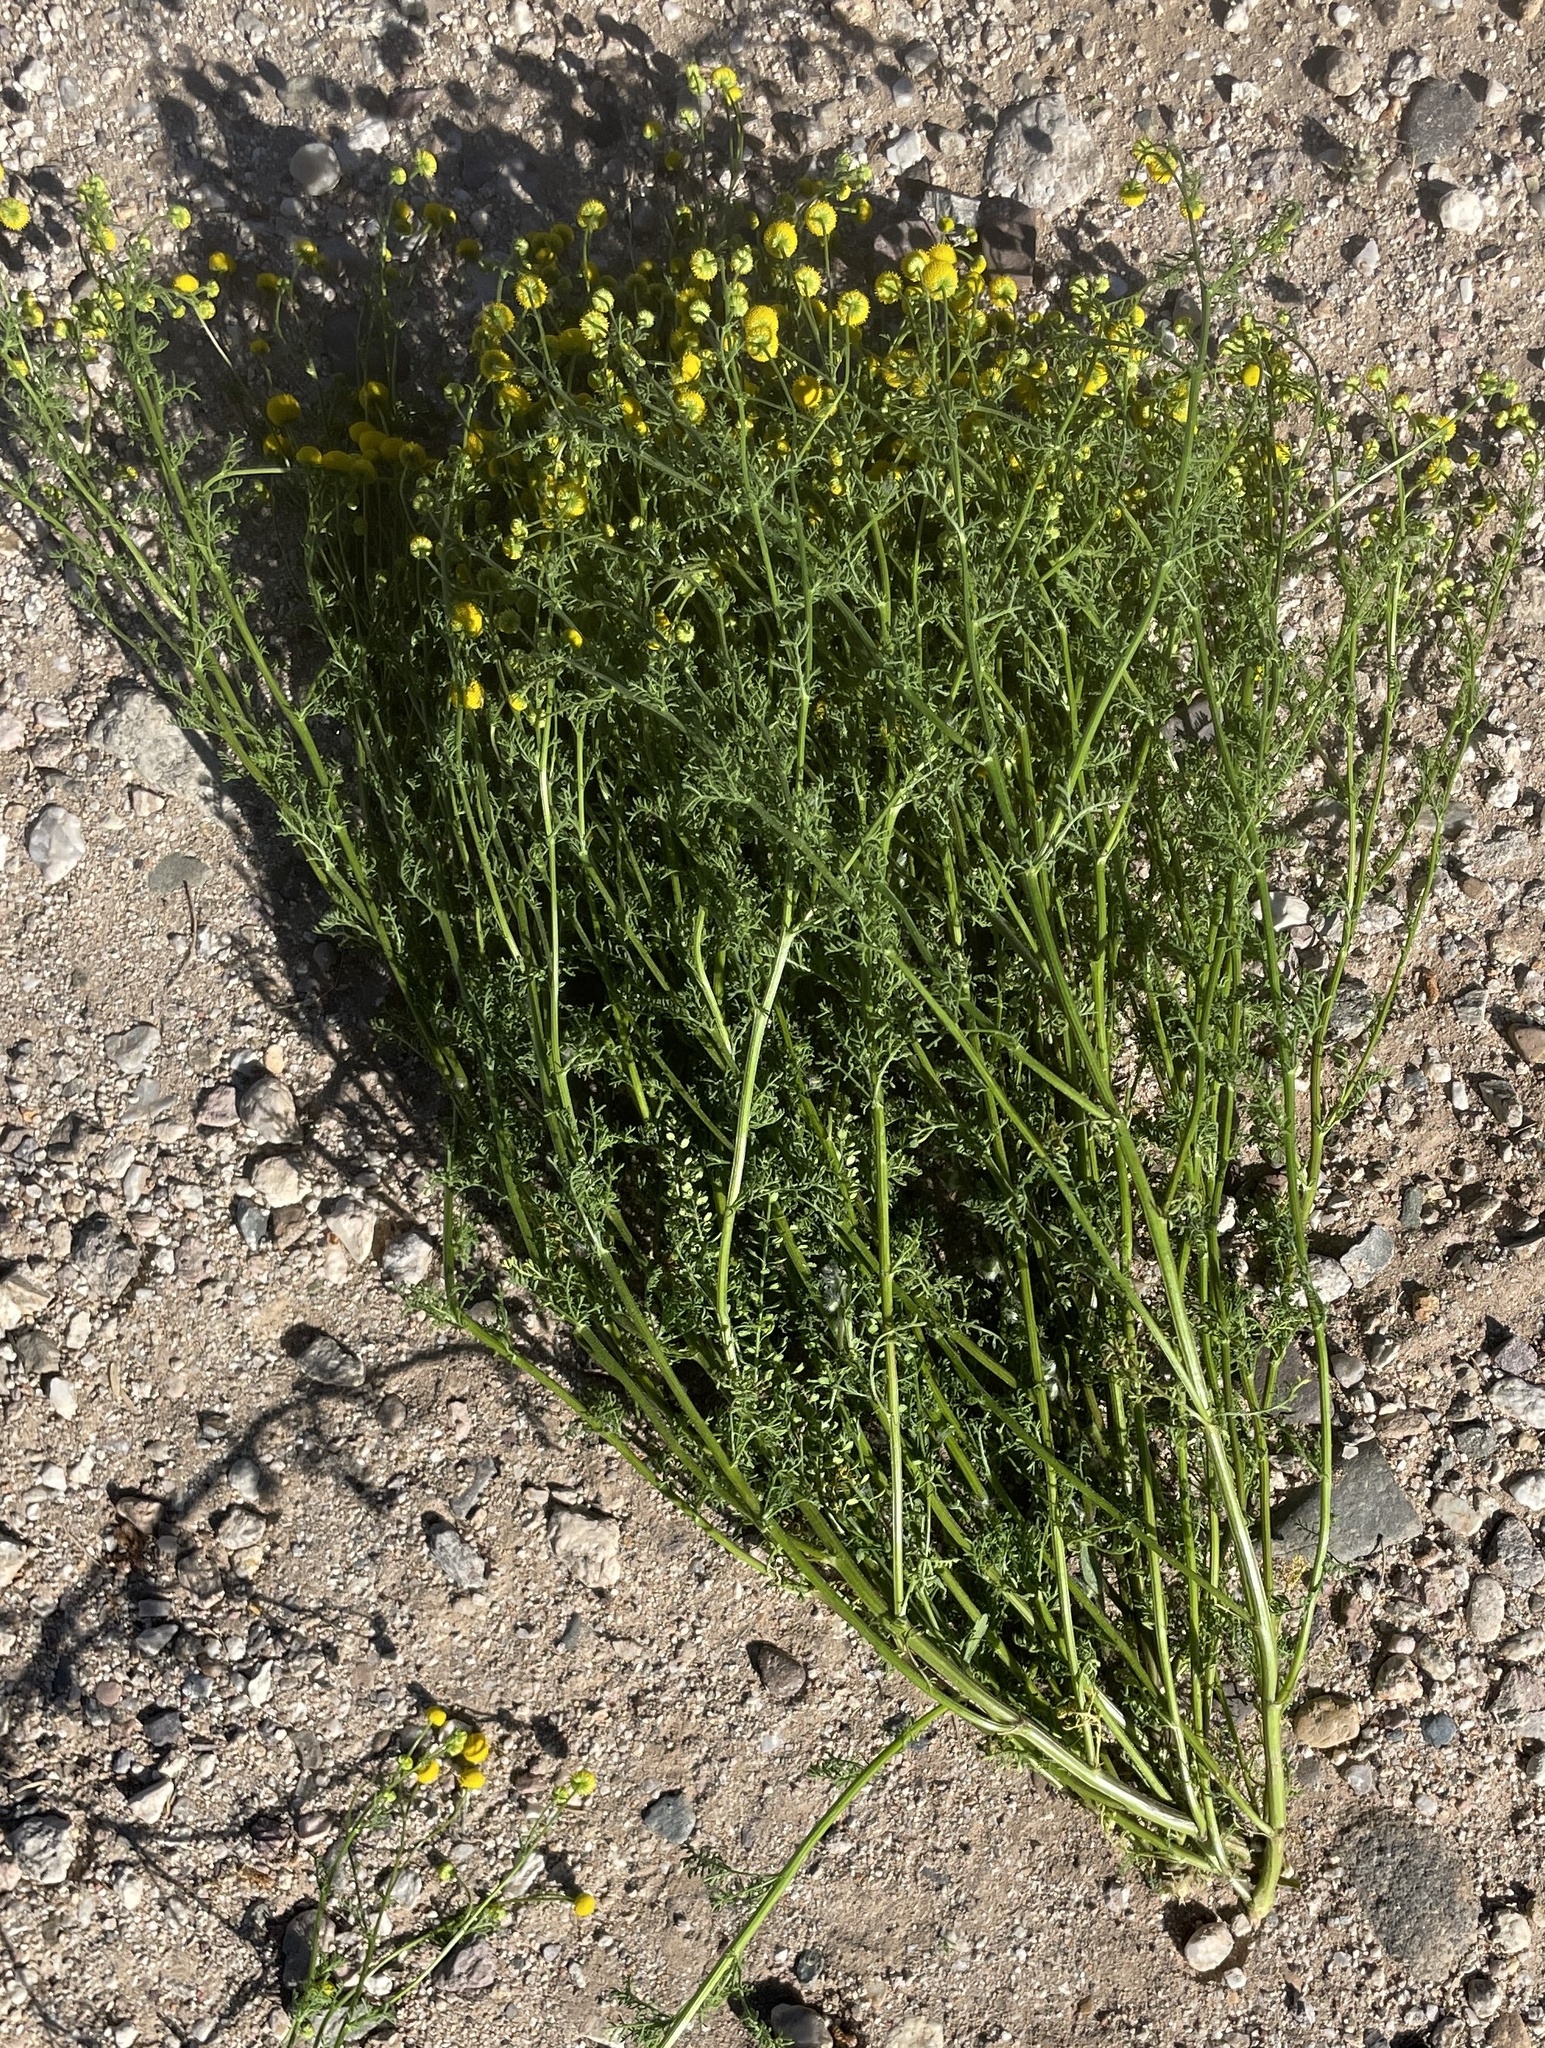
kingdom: Plantae
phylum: Tracheophyta
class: Magnoliopsida
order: Asterales
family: Asteraceae
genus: Oncosiphon
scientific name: Oncosiphon pilulifer
